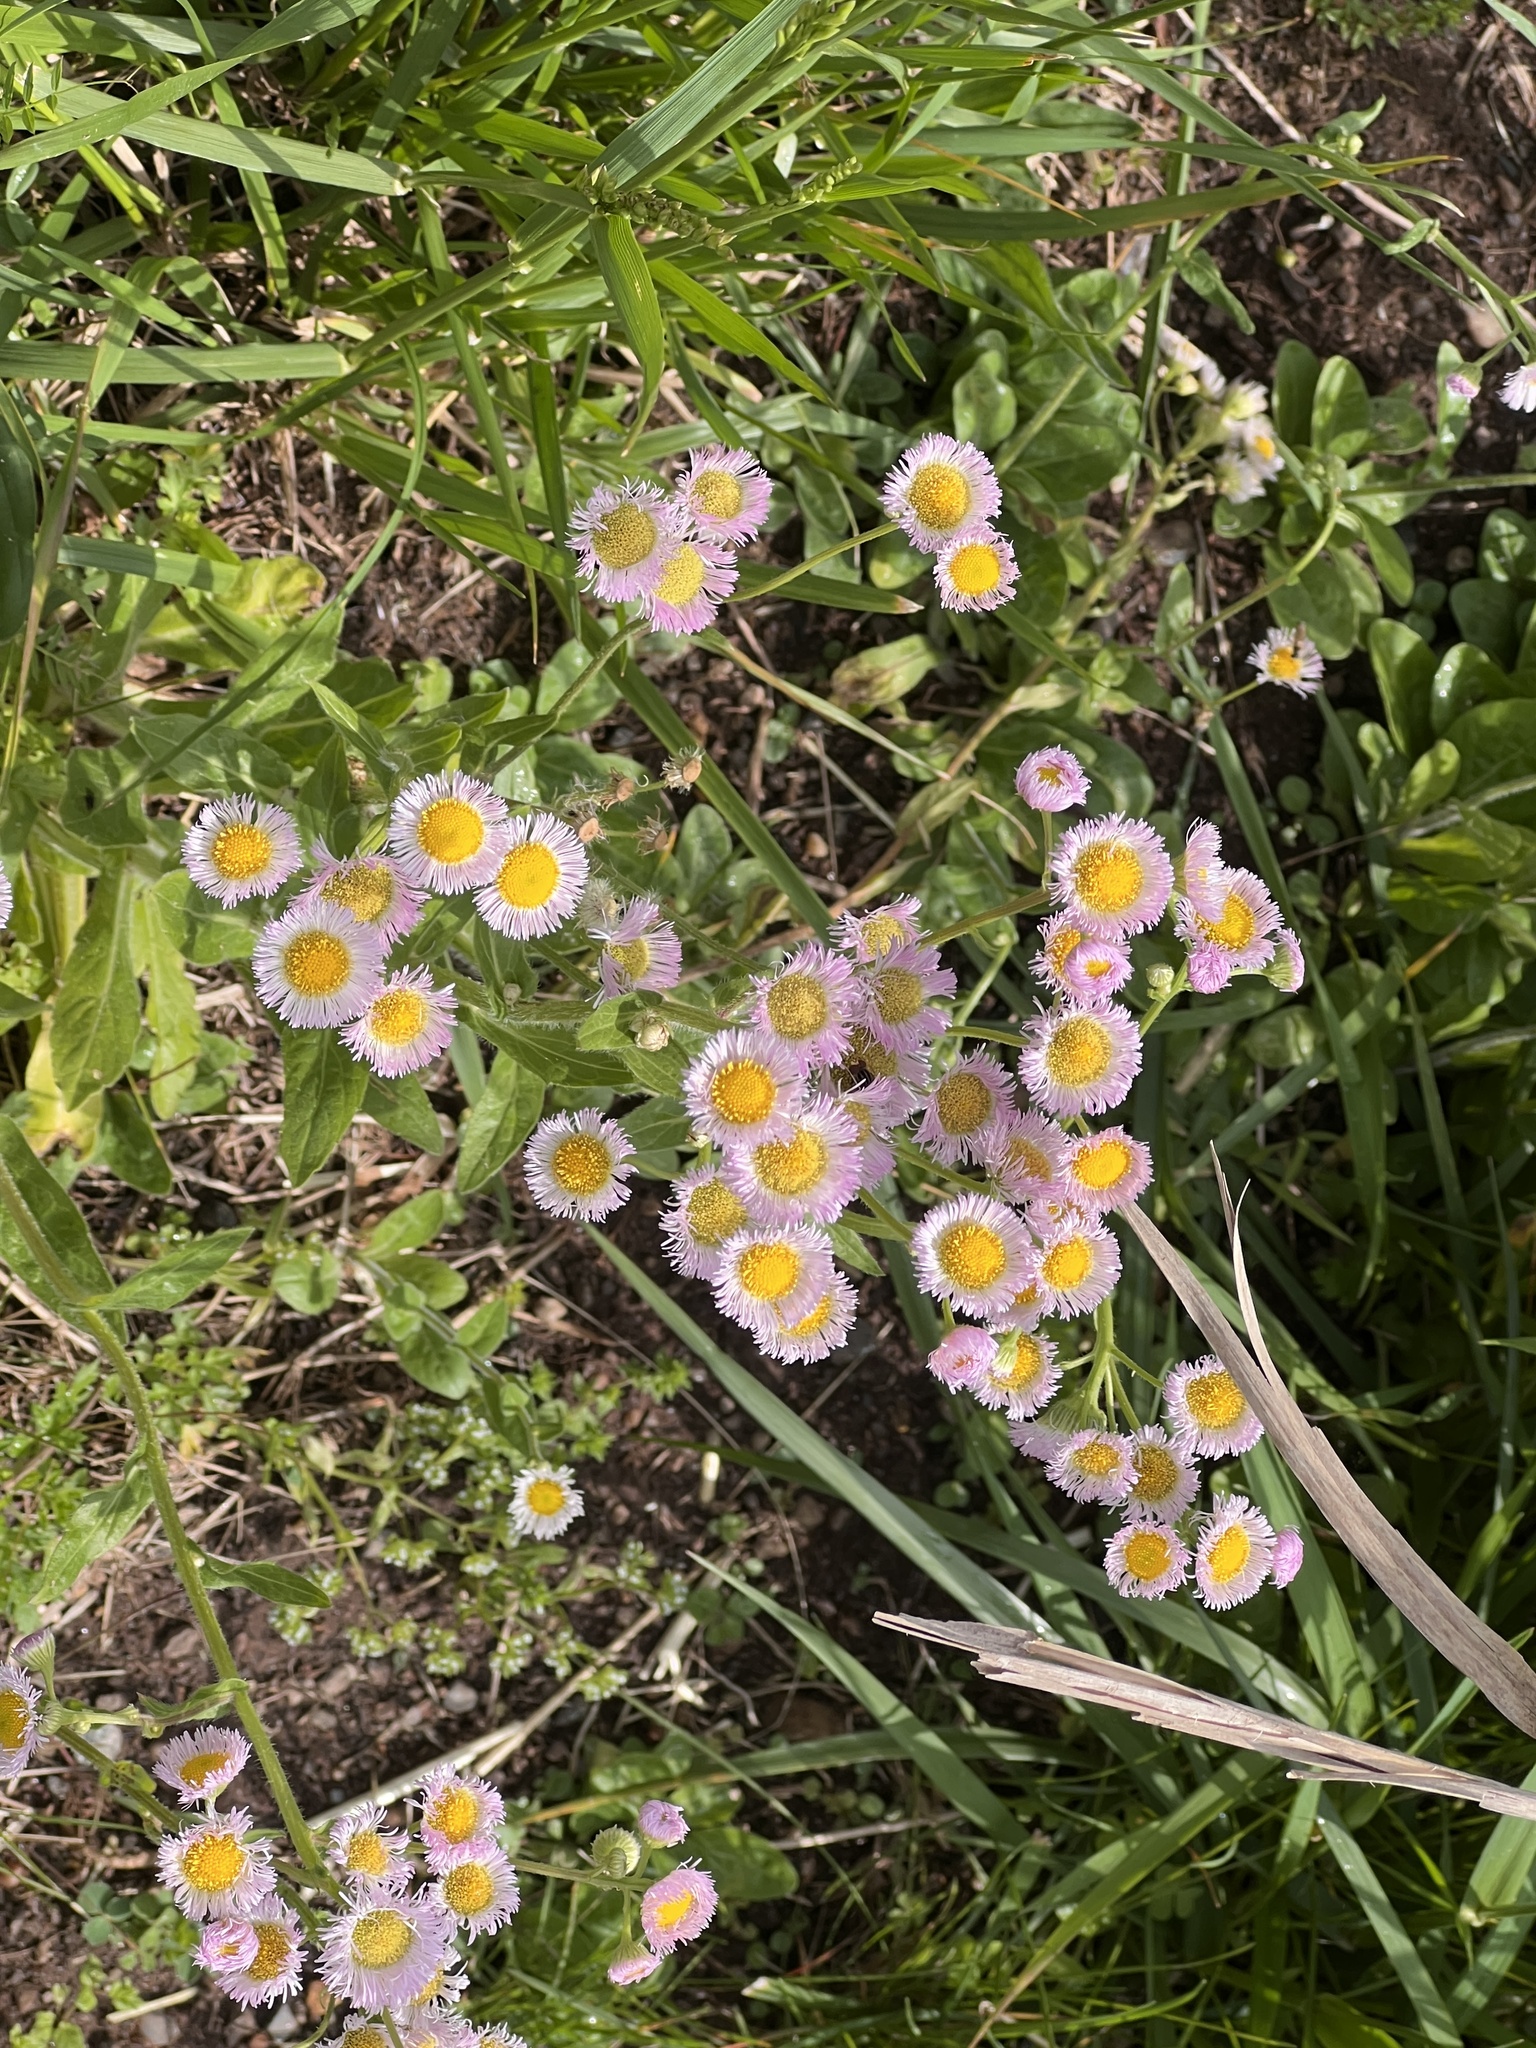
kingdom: Plantae
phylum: Tracheophyta
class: Magnoliopsida
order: Asterales
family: Asteraceae
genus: Erigeron
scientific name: Erigeron philadelphicus
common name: Robin's-plantain
